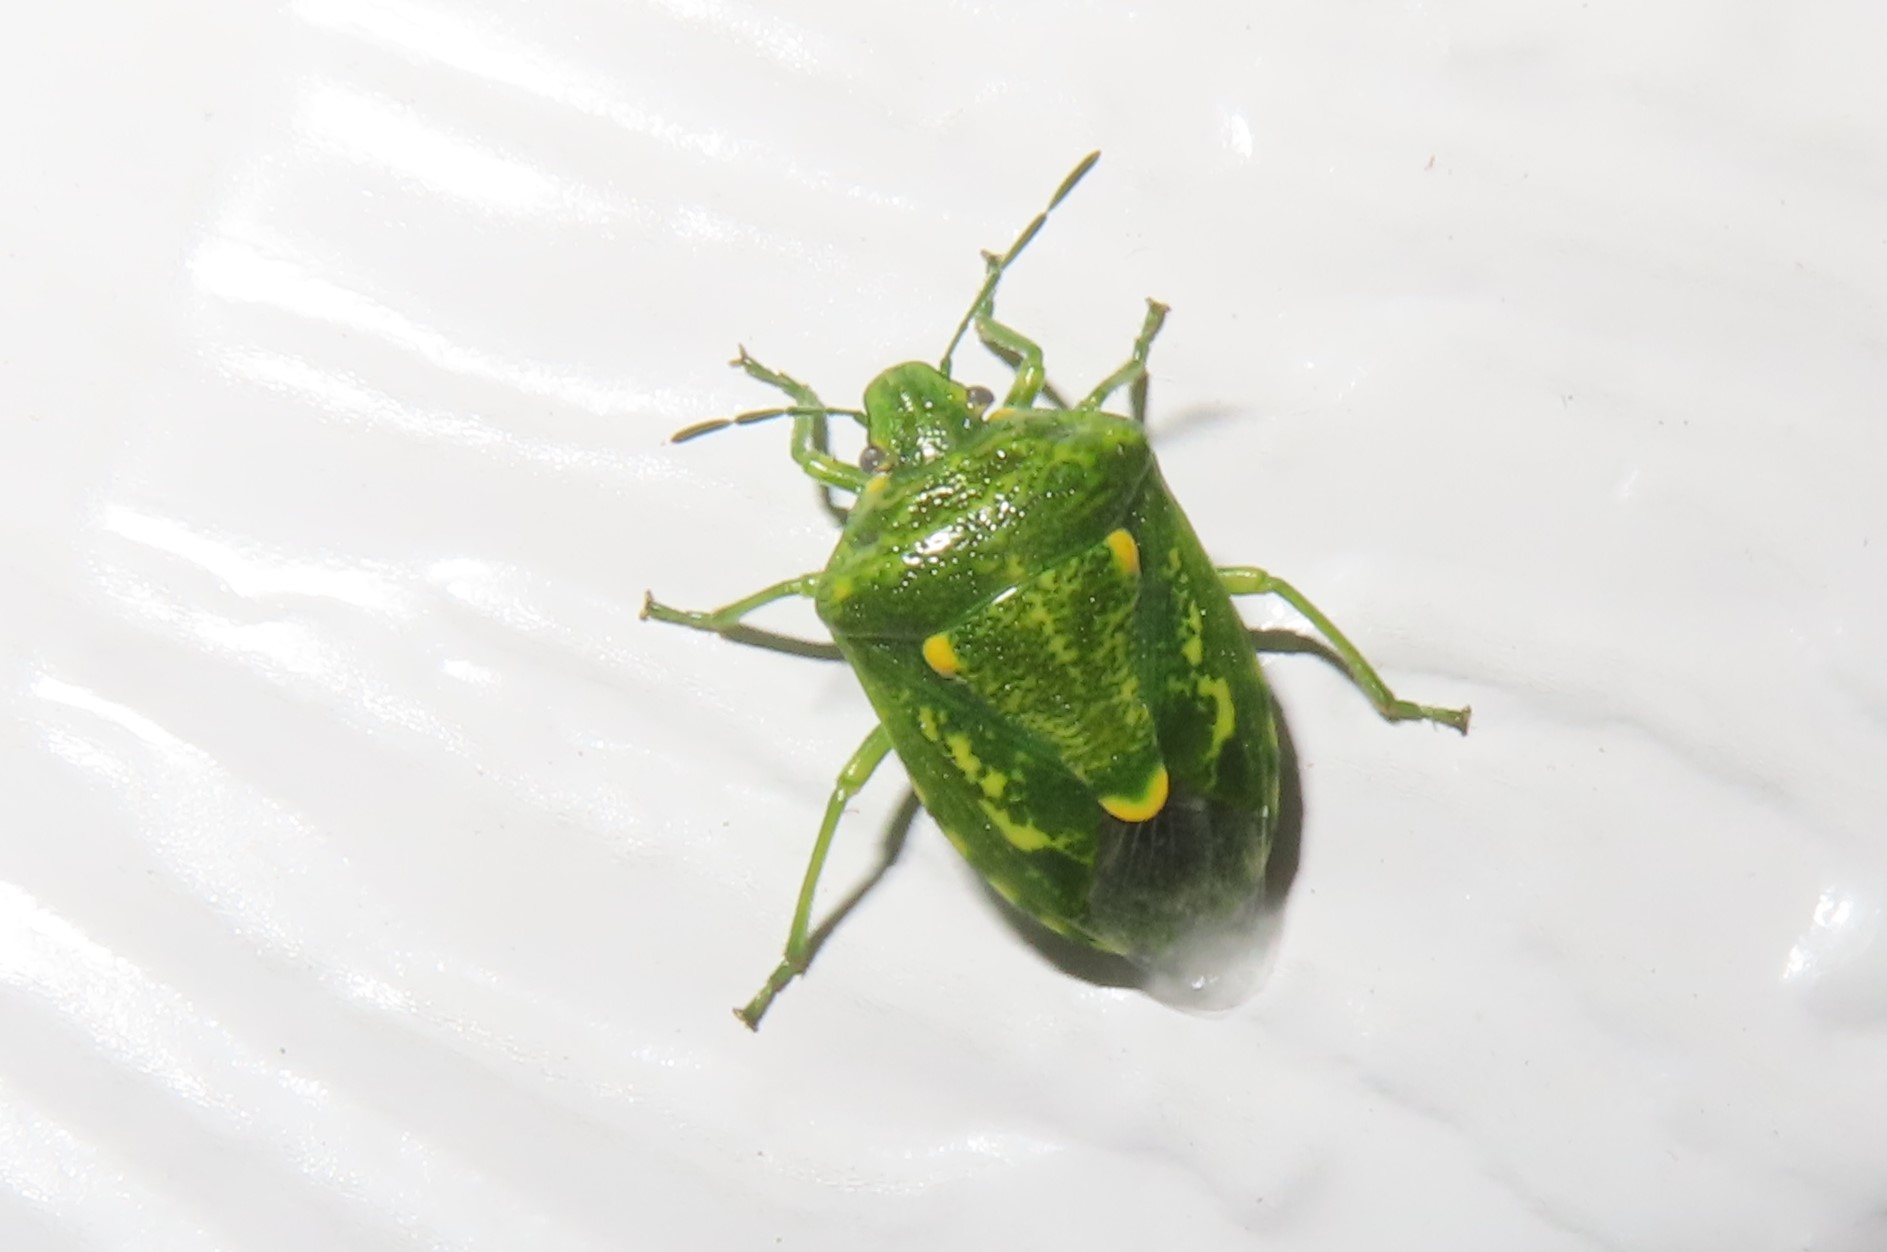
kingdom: Animalia
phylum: Arthropoda
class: Insecta
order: Hemiptera
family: Pentatomidae
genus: Banasa
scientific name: Banasa euchlora
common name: Cedar berry bug
